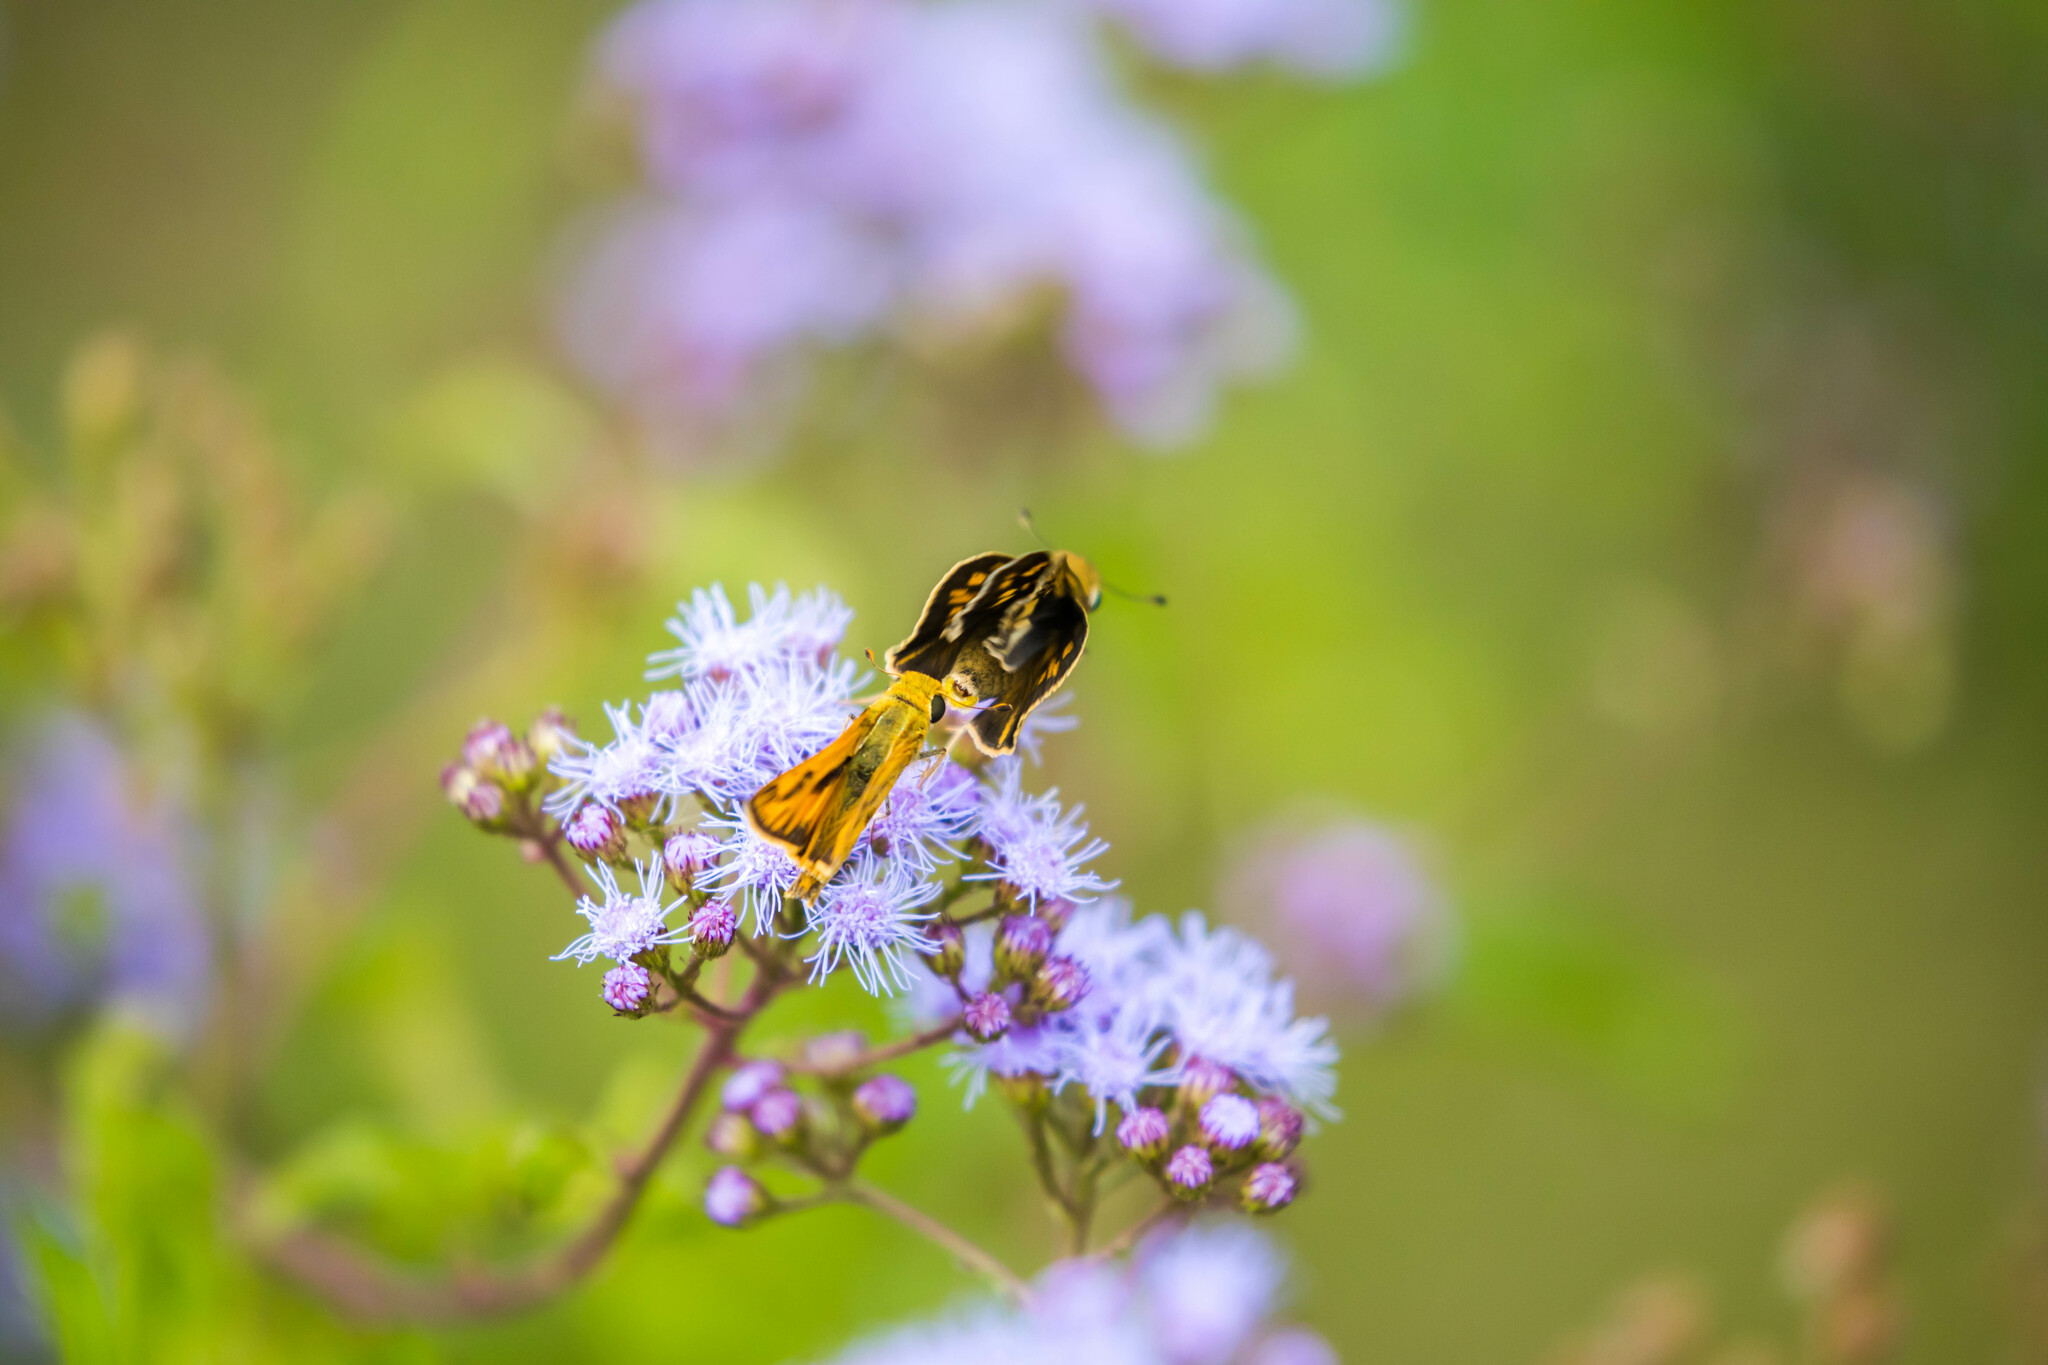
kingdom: Animalia
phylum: Arthropoda
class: Insecta
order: Lepidoptera
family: Hesperiidae
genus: Hylephila
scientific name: Hylephila phyleus
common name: Fiery skipper
